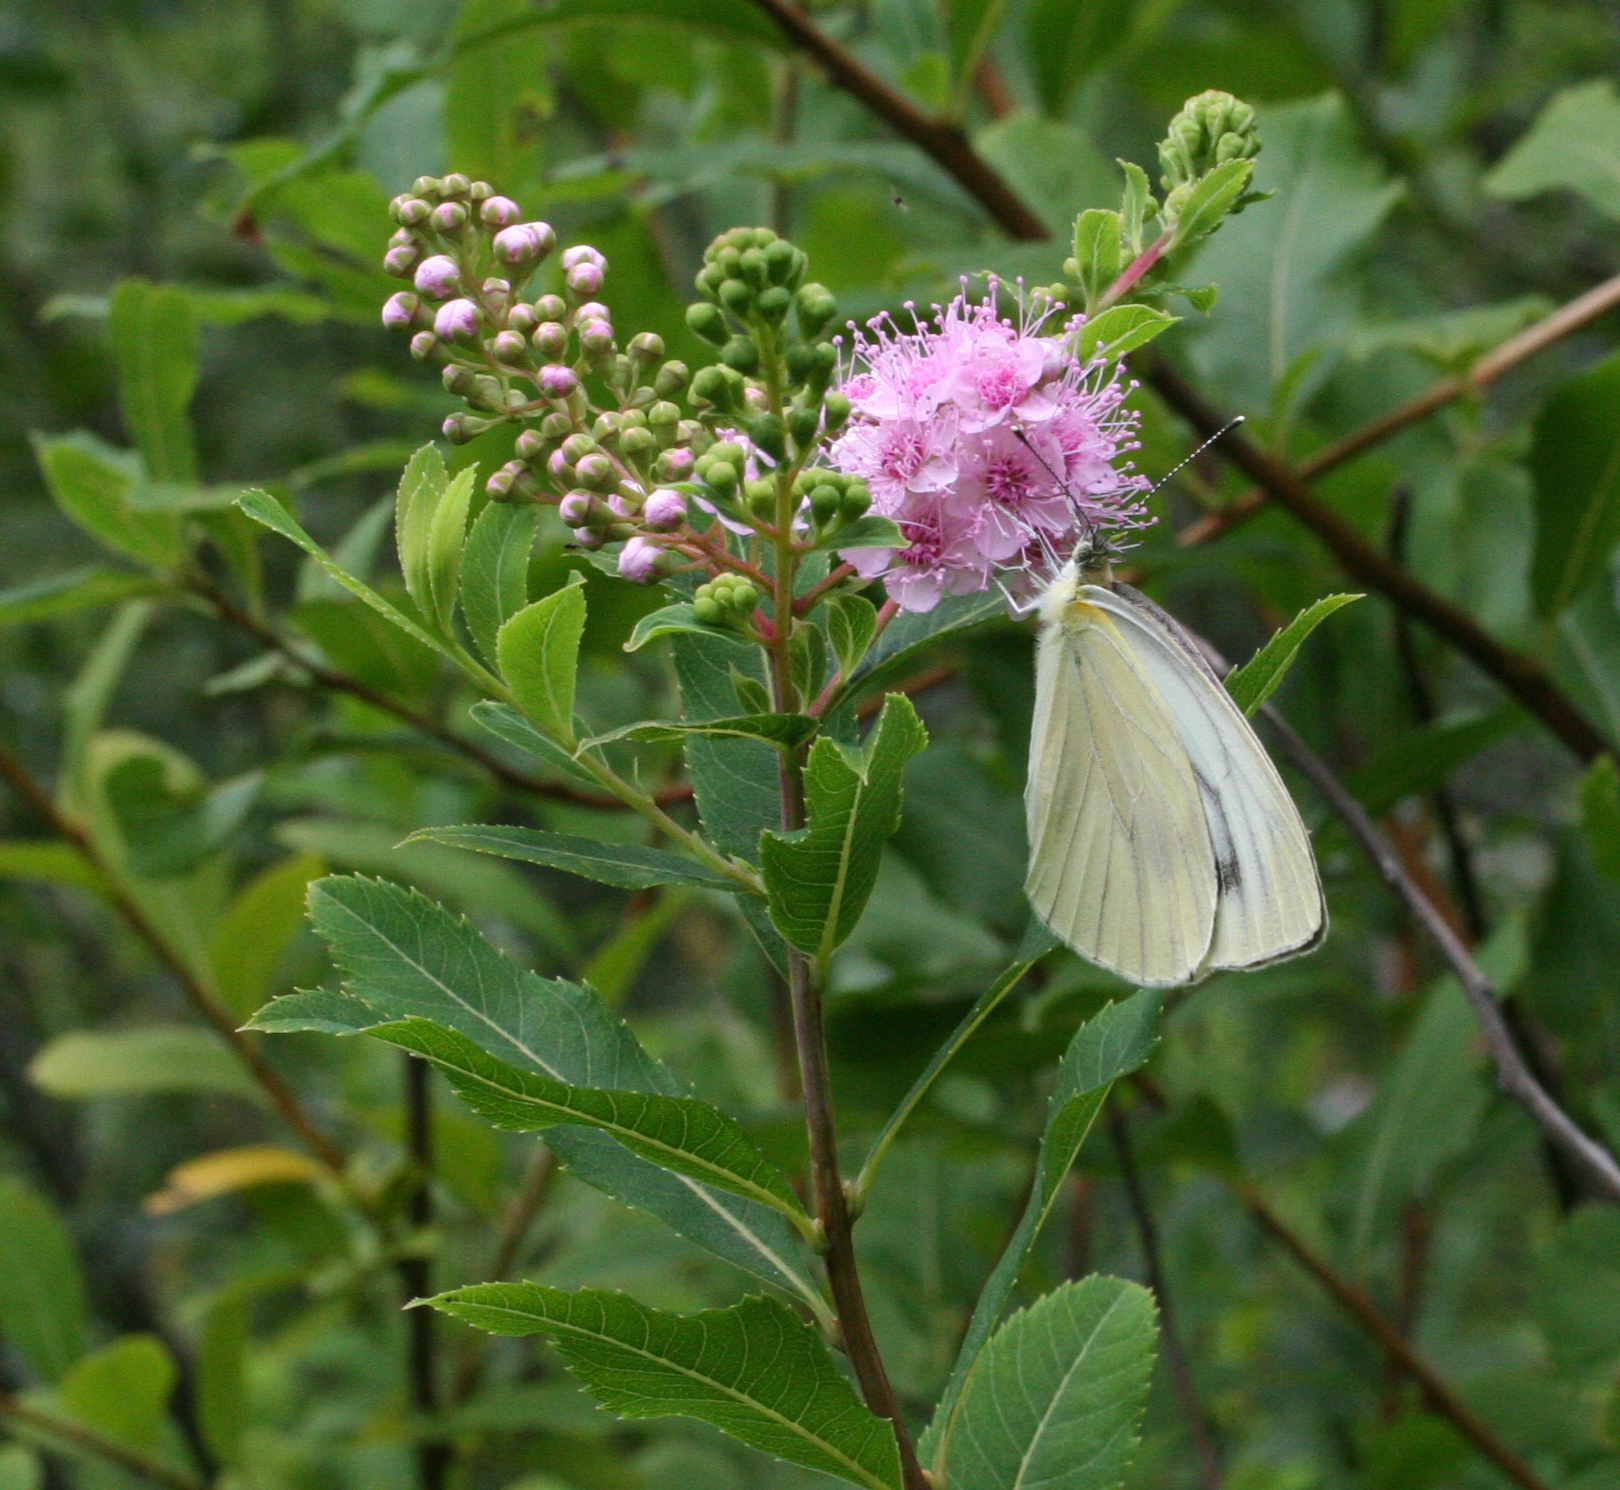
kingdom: Animalia
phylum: Arthropoda
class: Insecta
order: Lepidoptera
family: Pieridae
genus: Pieris
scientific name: Pieris dulcinea
